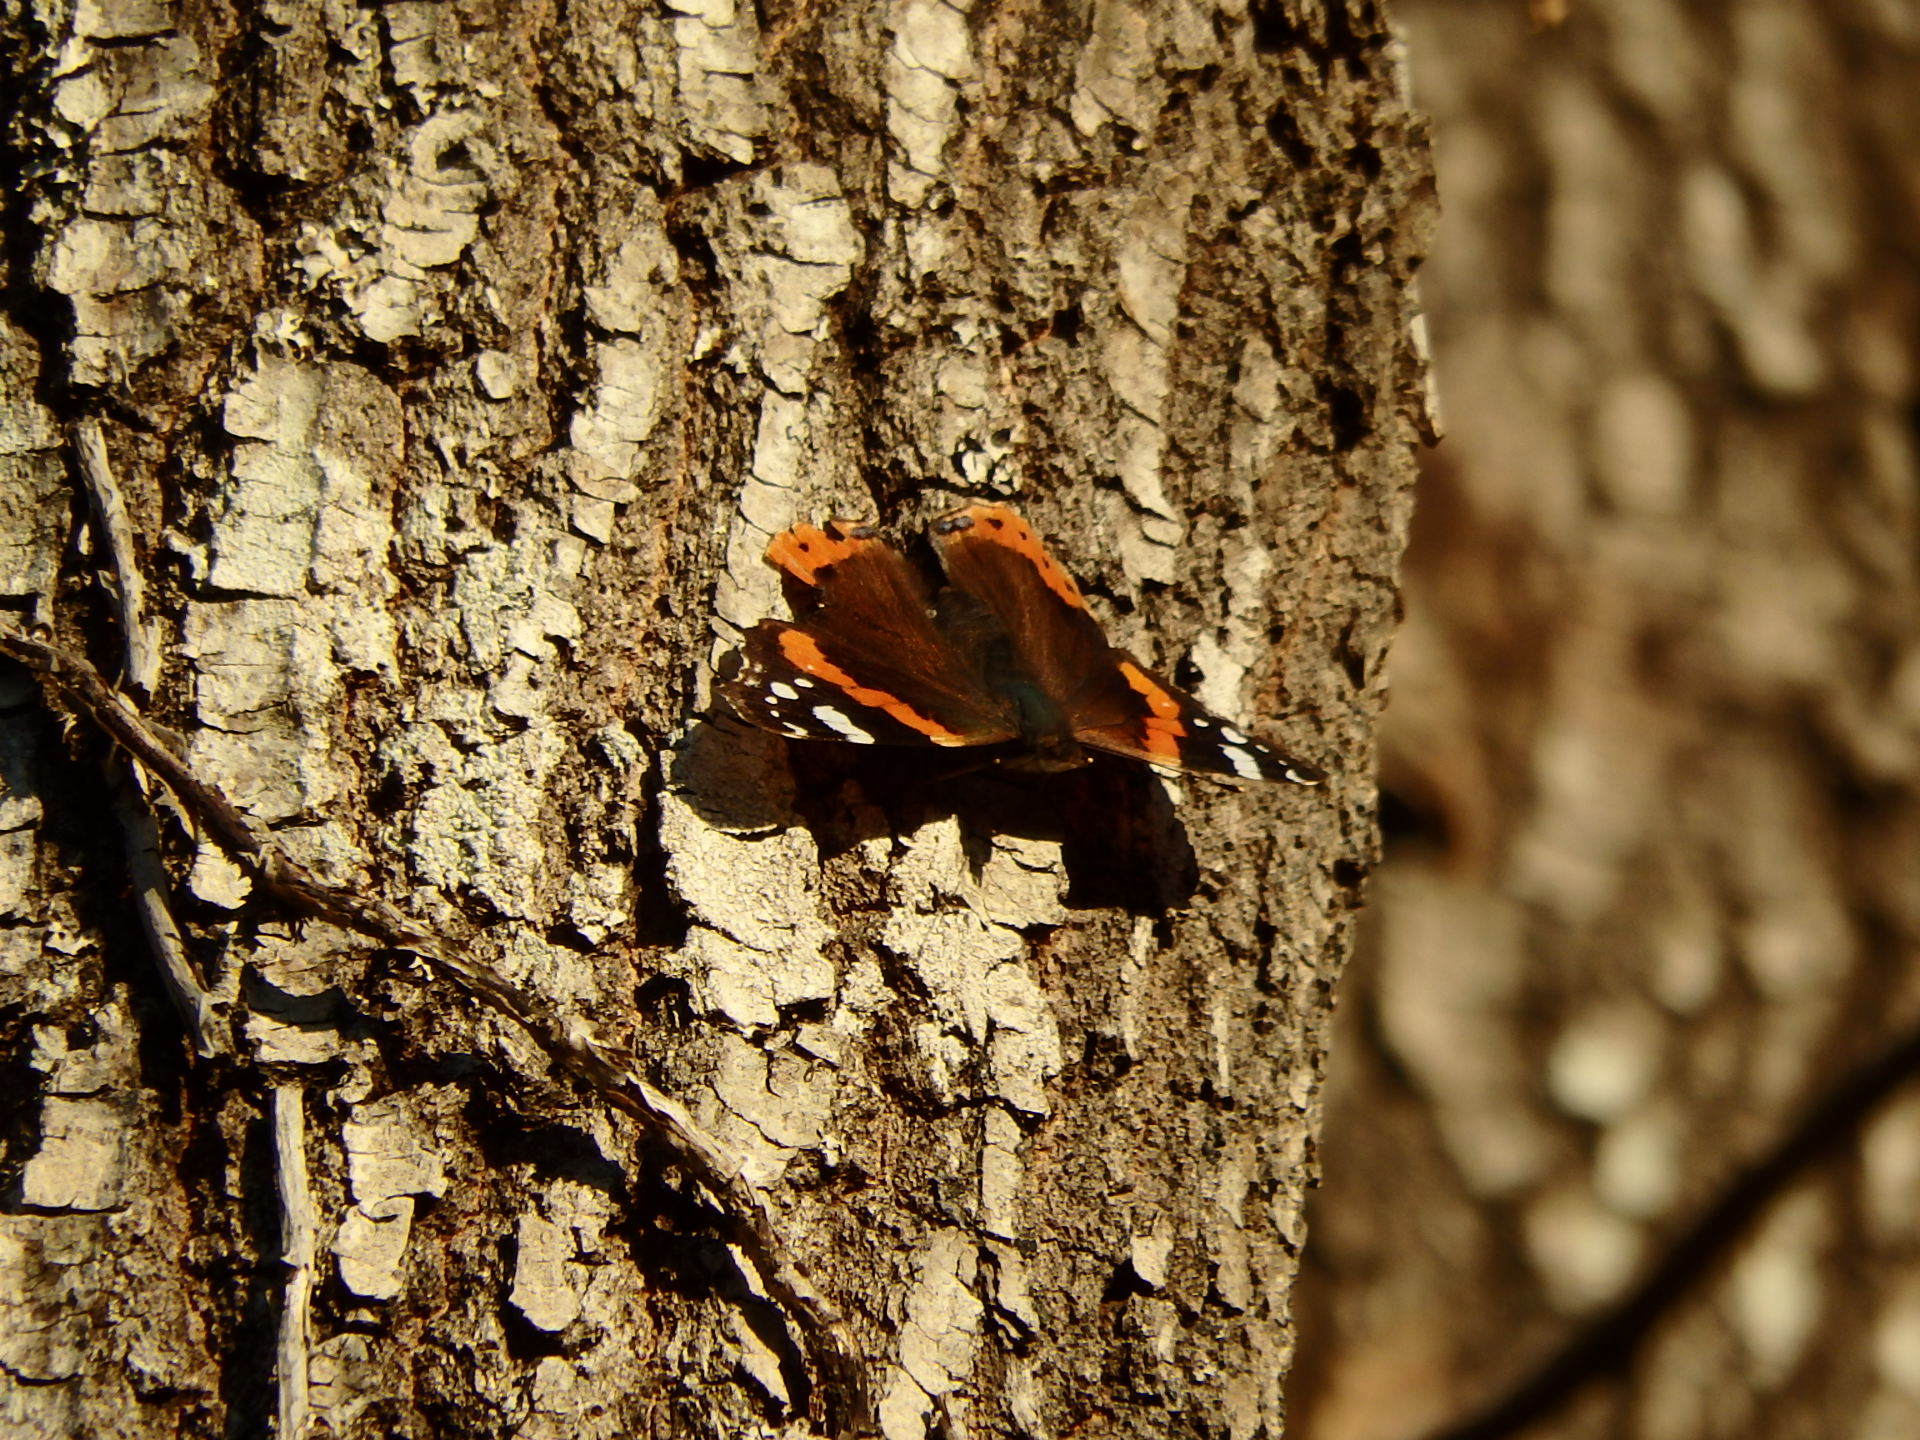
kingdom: Animalia
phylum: Arthropoda
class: Insecta
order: Lepidoptera
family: Nymphalidae
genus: Vanessa
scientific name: Vanessa atalanta
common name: Red admiral
